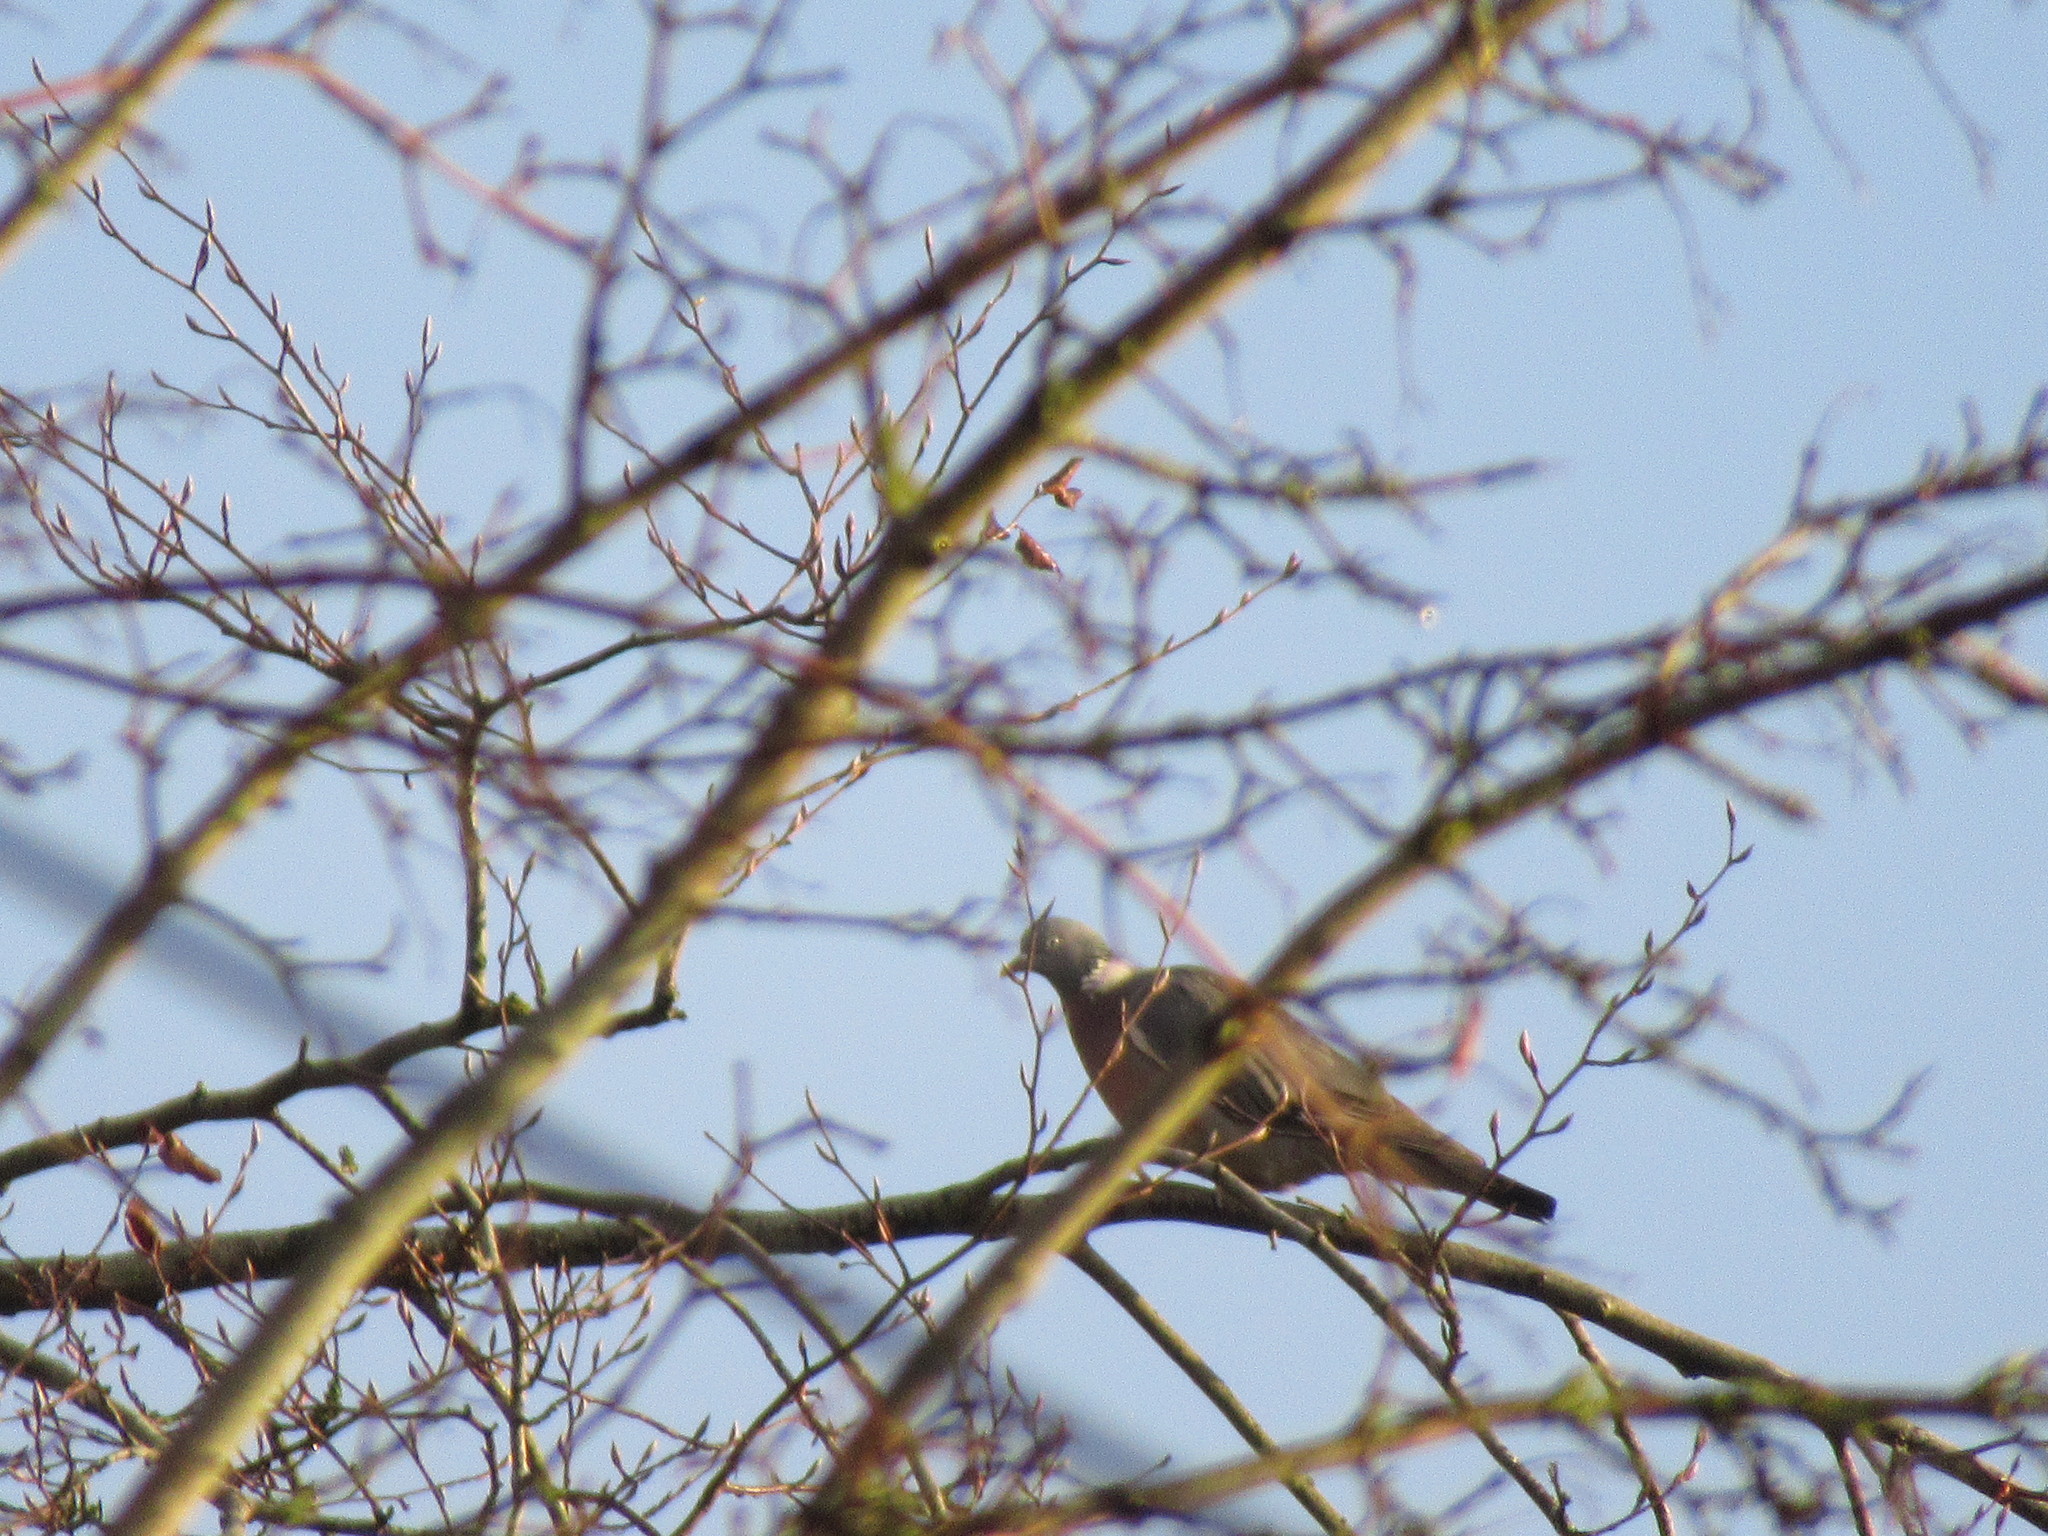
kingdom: Animalia
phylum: Chordata
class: Aves
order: Columbiformes
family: Columbidae
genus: Columba
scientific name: Columba palumbus
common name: Common wood pigeon
